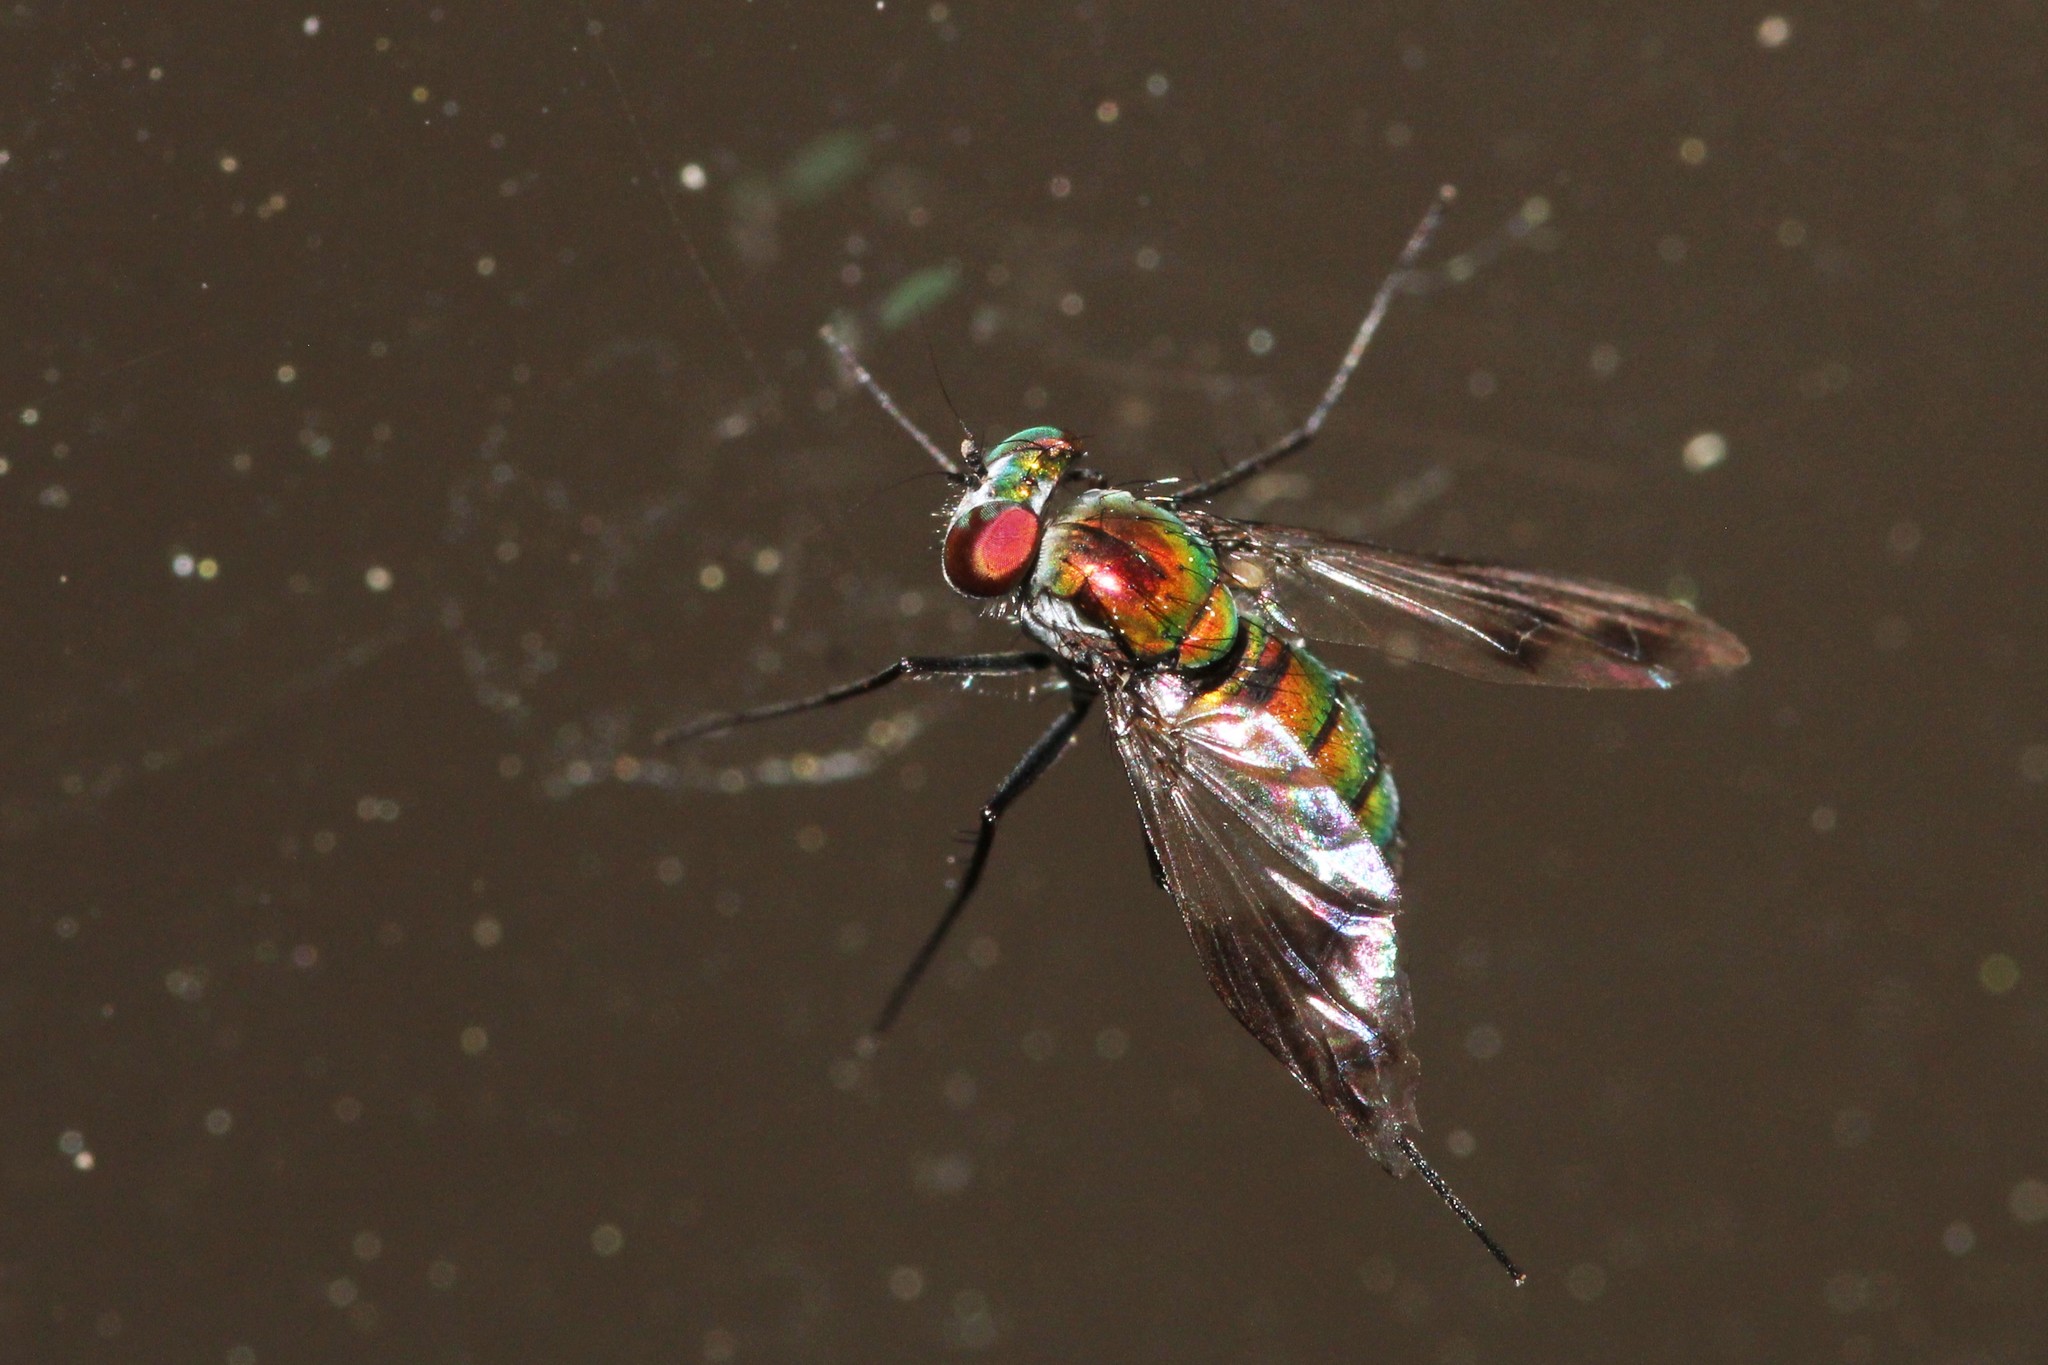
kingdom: Animalia
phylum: Arthropoda
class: Insecta
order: Diptera
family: Dolichopodidae
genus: Condylostylus
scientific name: Condylostylus patibulatus
